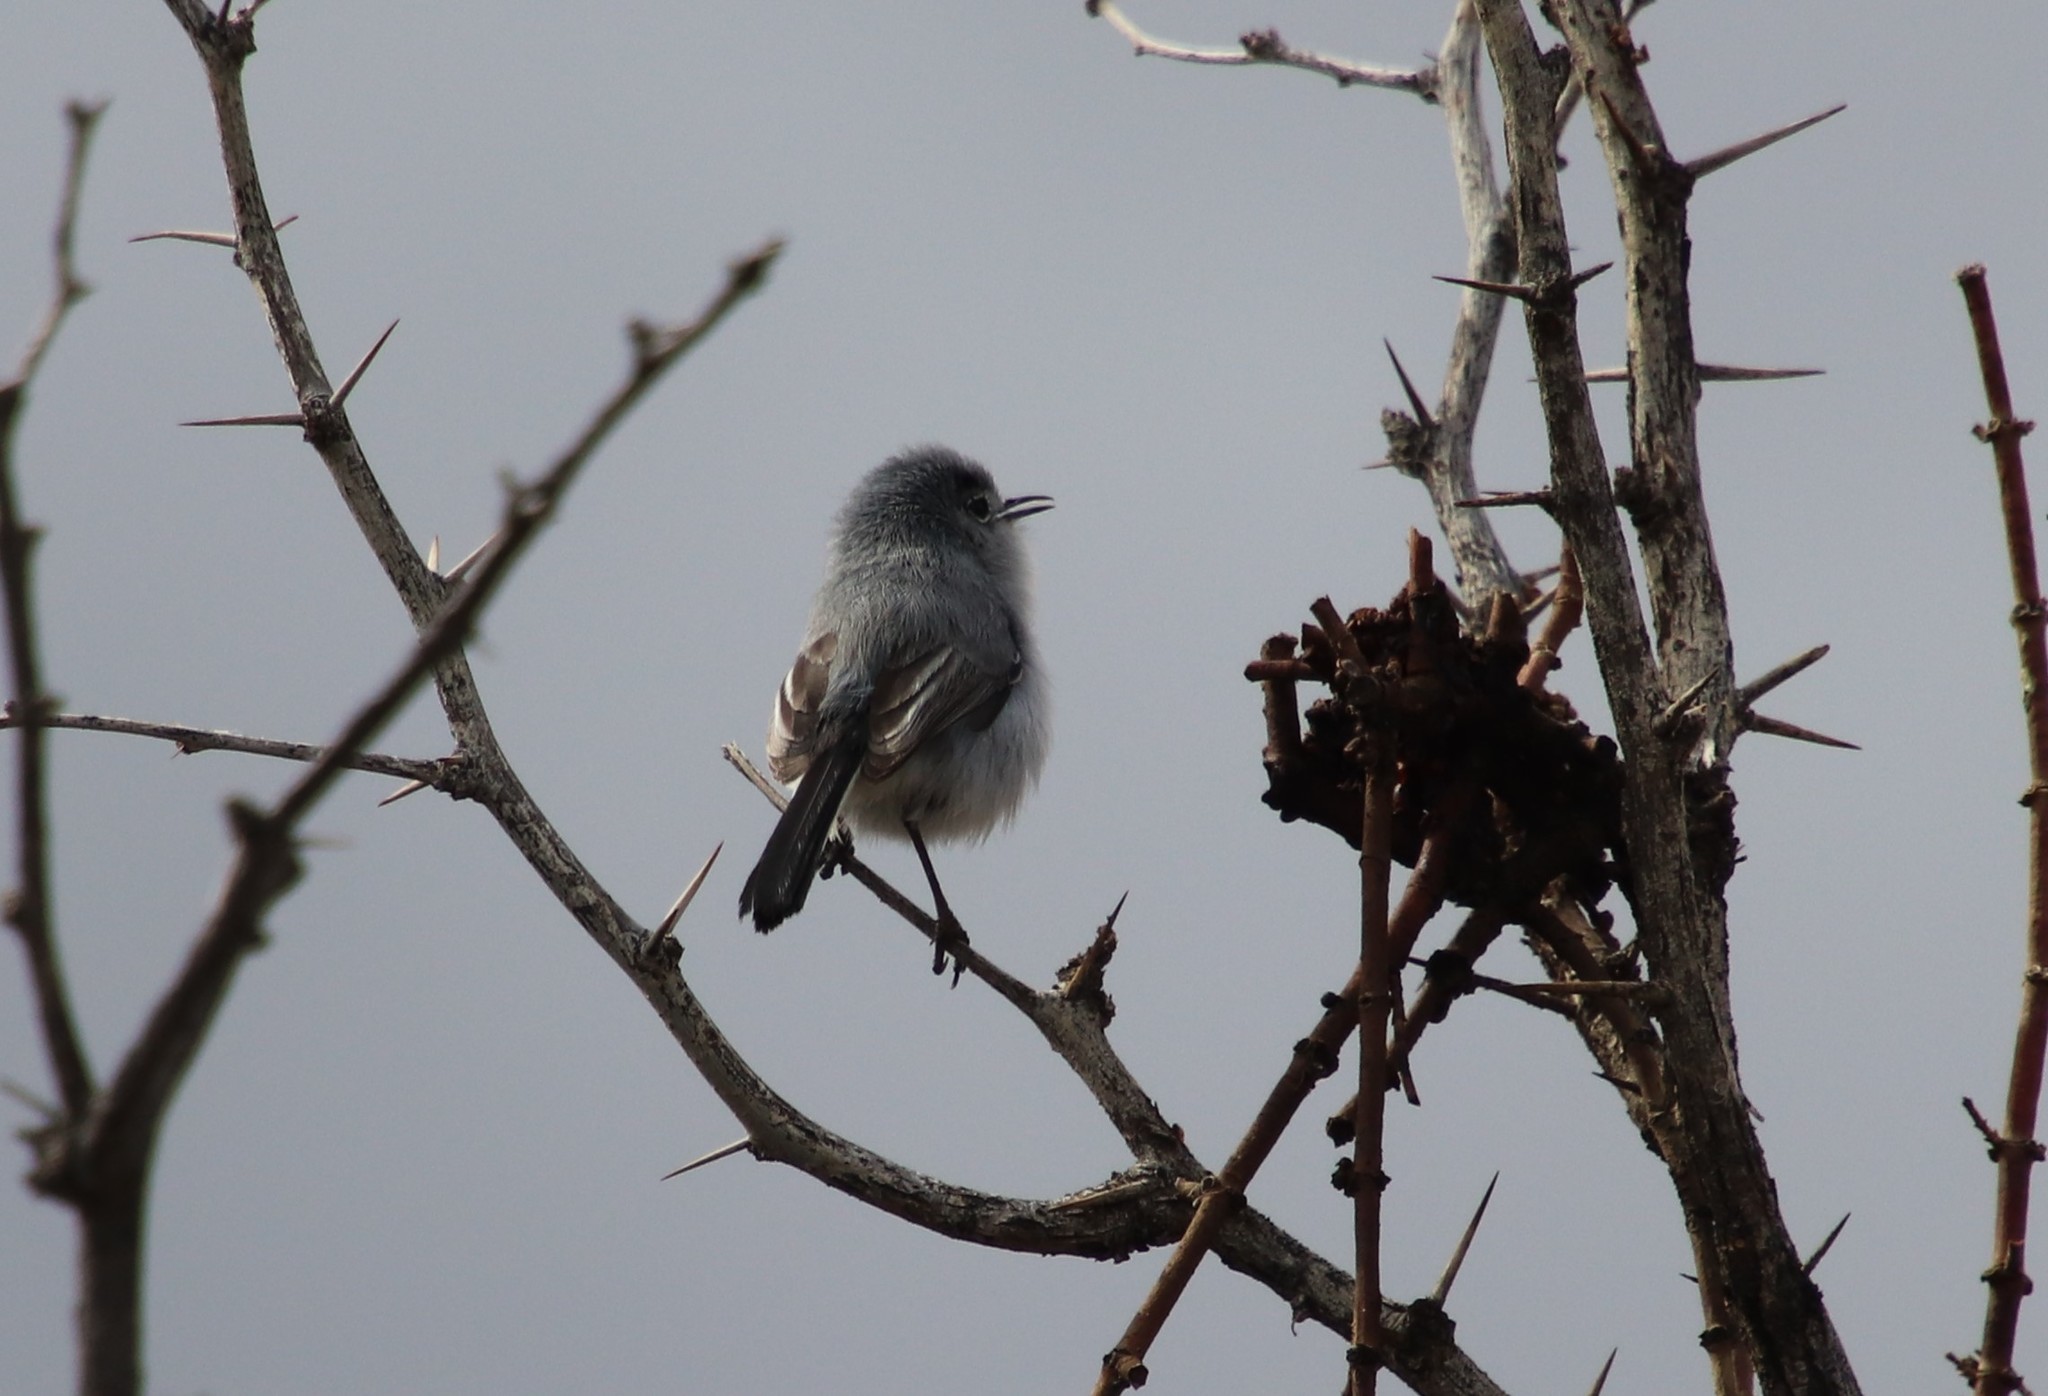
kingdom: Animalia
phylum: Chordata
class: Aves
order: Passeriformes
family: Polioptilidae
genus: Polioptila
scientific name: Polioptila melanura
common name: Black-tailed gnatcatcher
